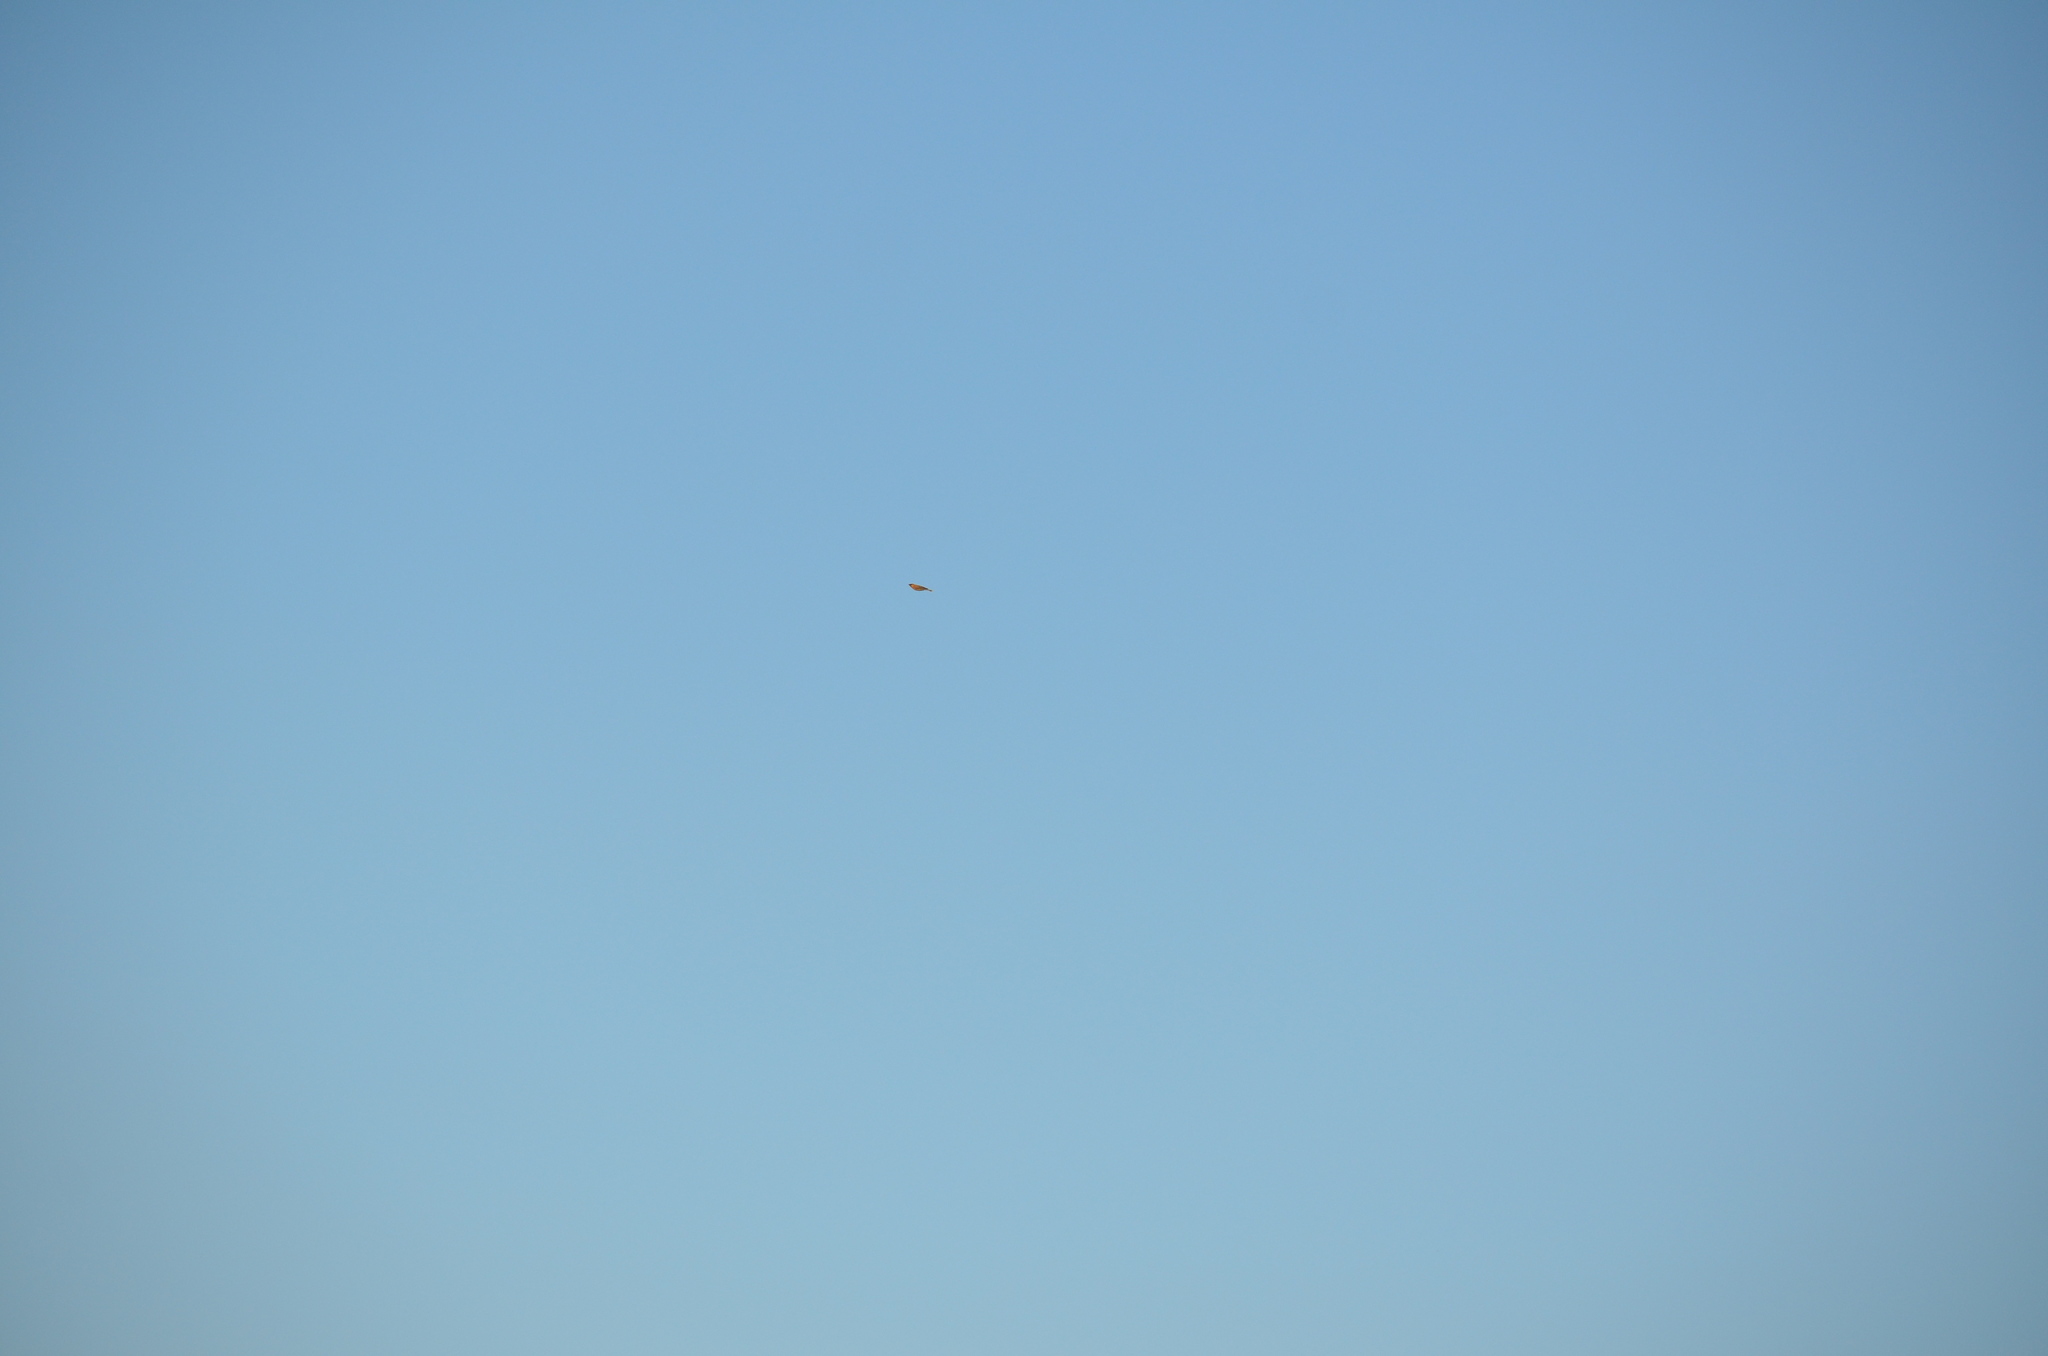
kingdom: Animalia
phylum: Chordata
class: Aves
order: Passeriformes
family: Turdidae
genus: Turdus
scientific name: Turdus migratorius
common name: American robin
